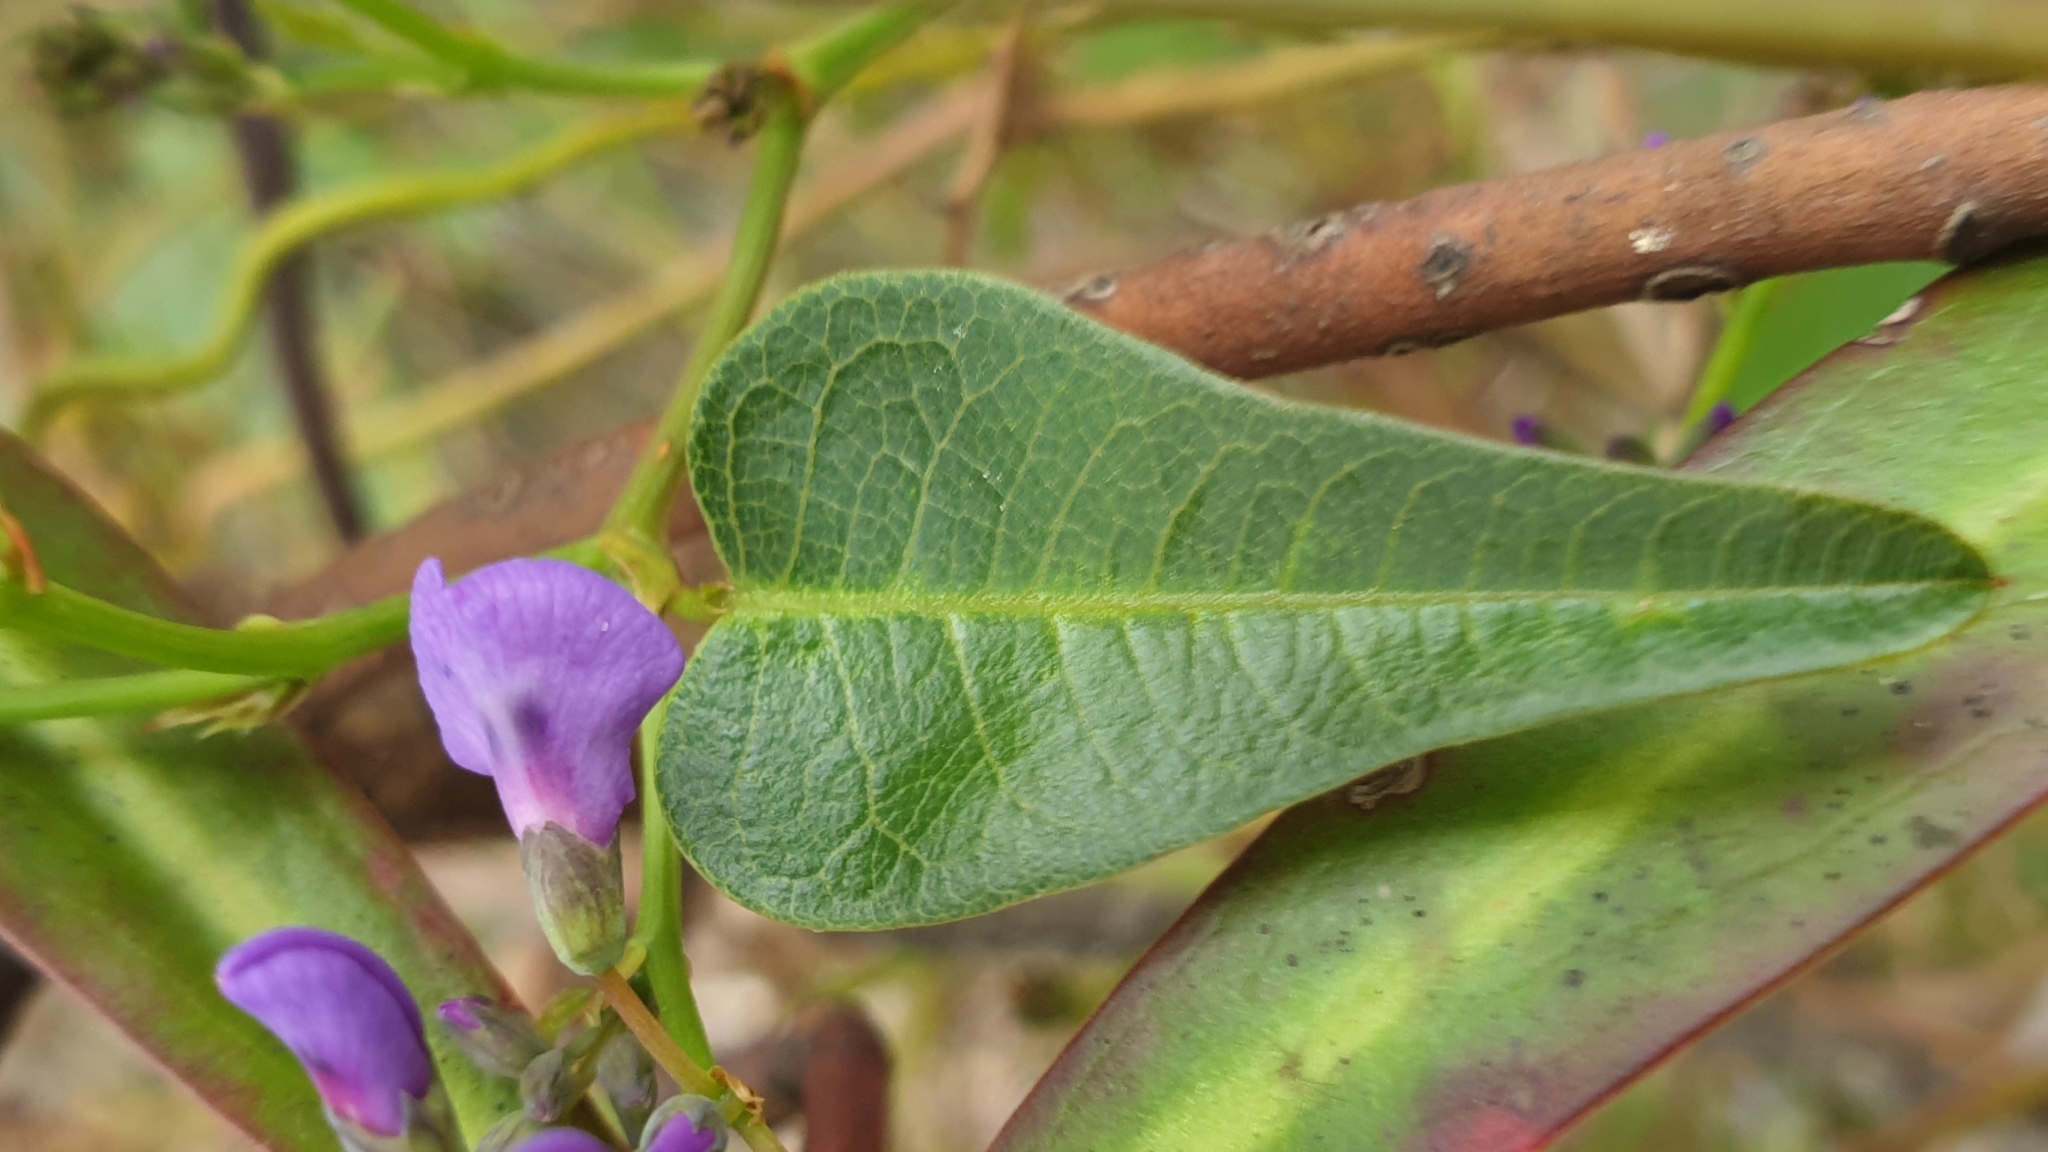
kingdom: Plantae
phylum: Tracheophyta
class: Magnoliopsida
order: Fabales
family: Fabaceae
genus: Hardenbergia
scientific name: Hardenbergia violacea
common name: Coral-pea
